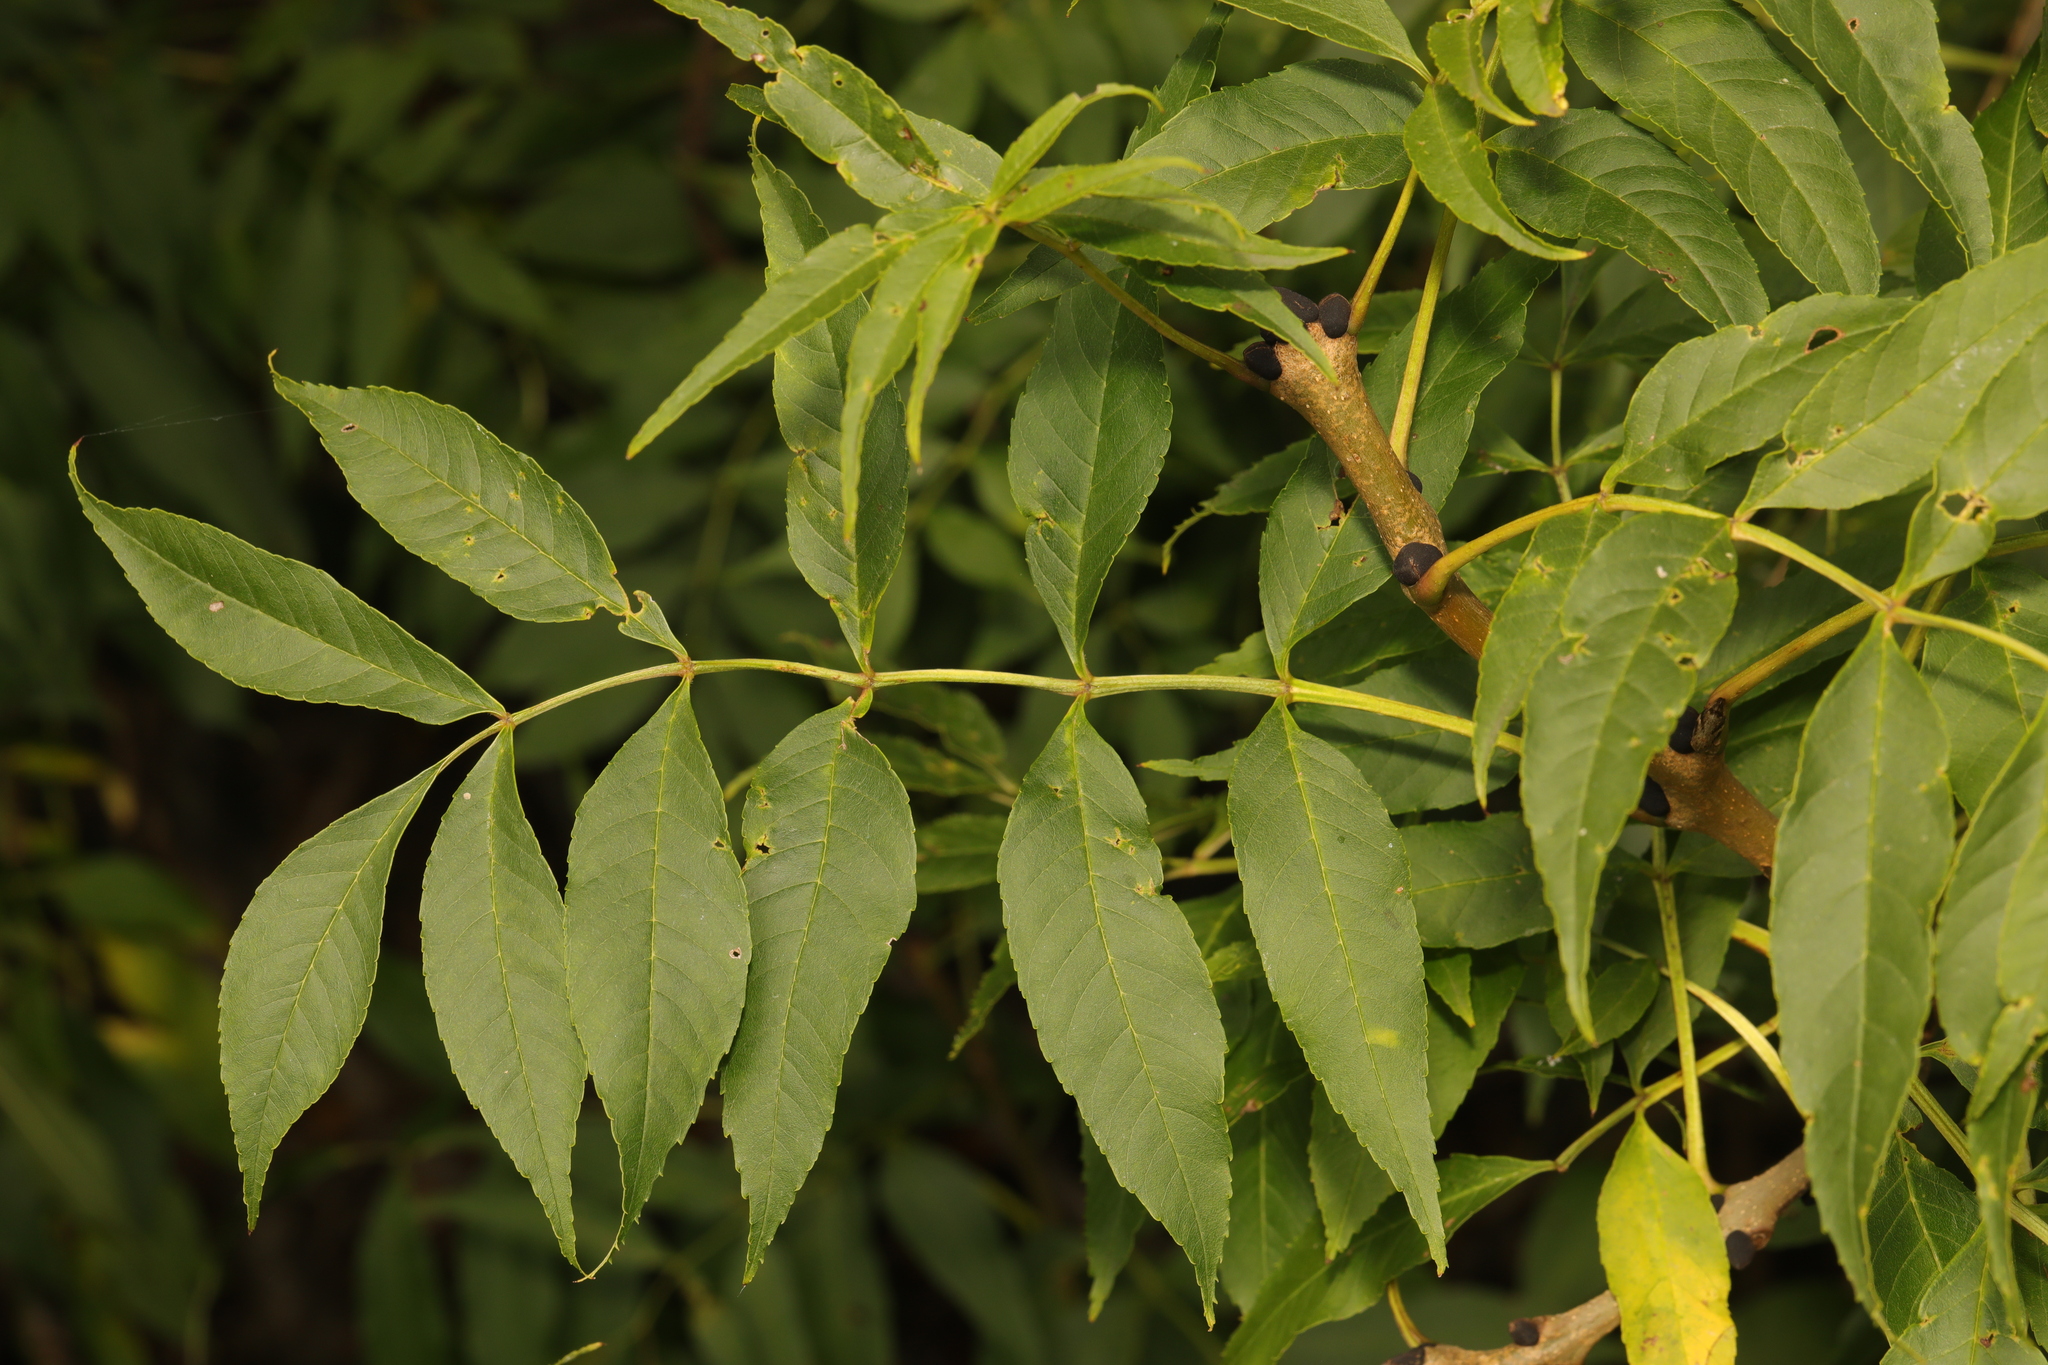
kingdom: Plantae
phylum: Tracheophyta
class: Magnoliopsida
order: Lamiales
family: Oleaceae
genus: Fraxinus
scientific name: Fraxinus excelsior
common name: European ash
